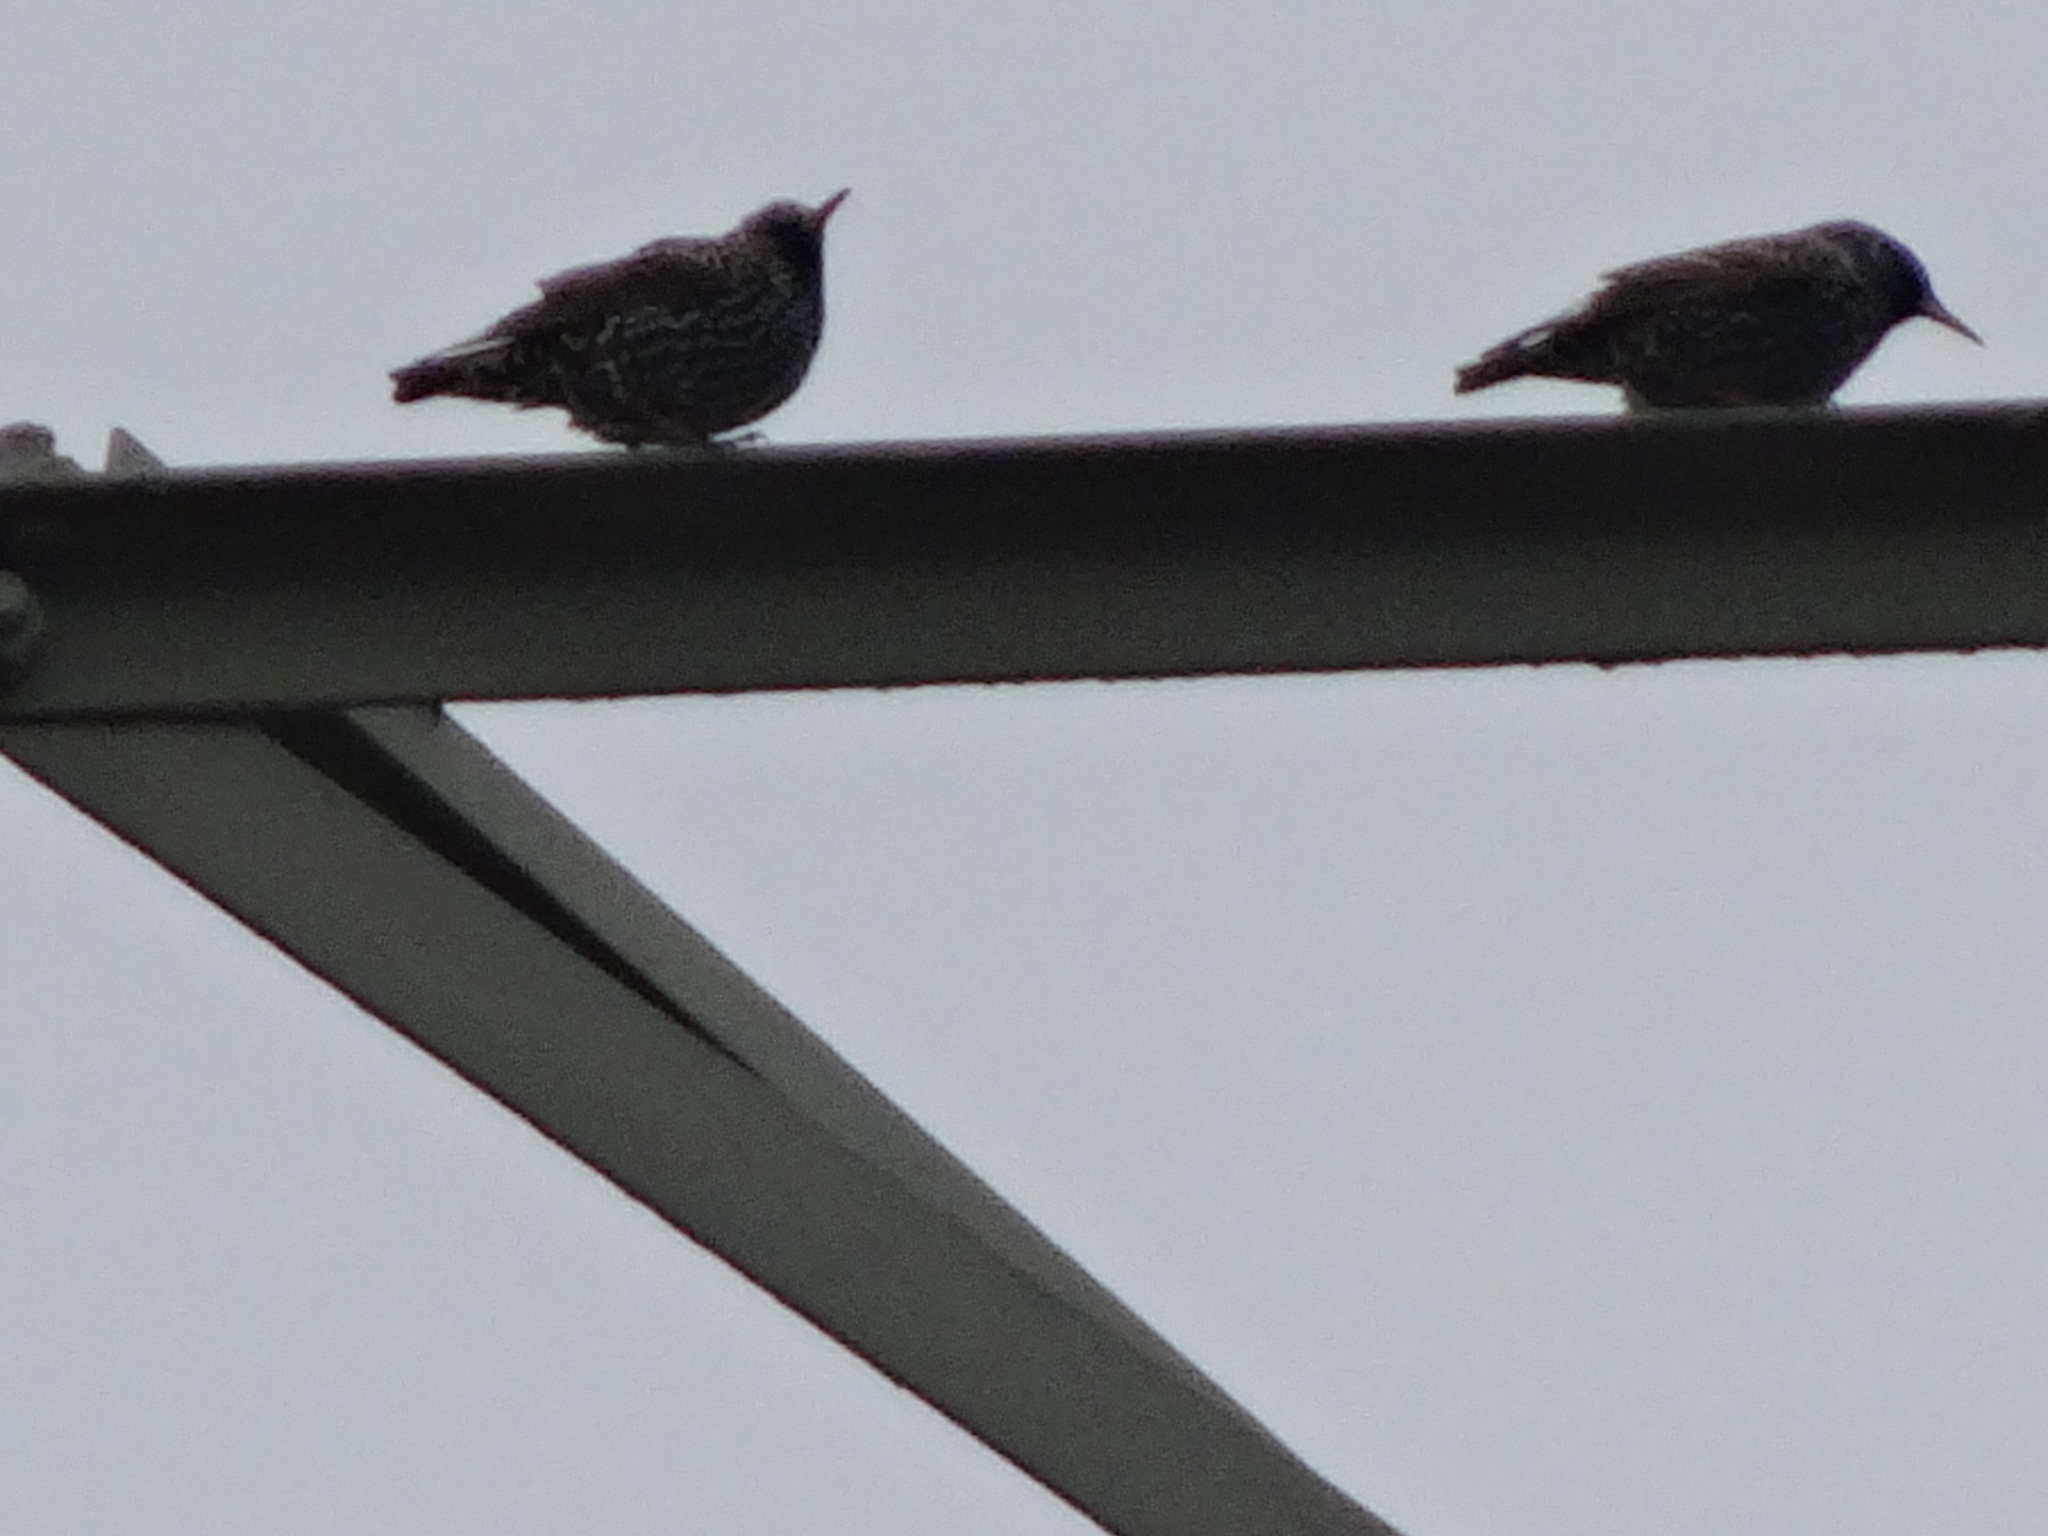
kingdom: Animalia
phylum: Chordata
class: Aves
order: Passeriformes
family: Sturnidae
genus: Sturnus
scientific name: Sturnus vulgaris
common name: Common starling
